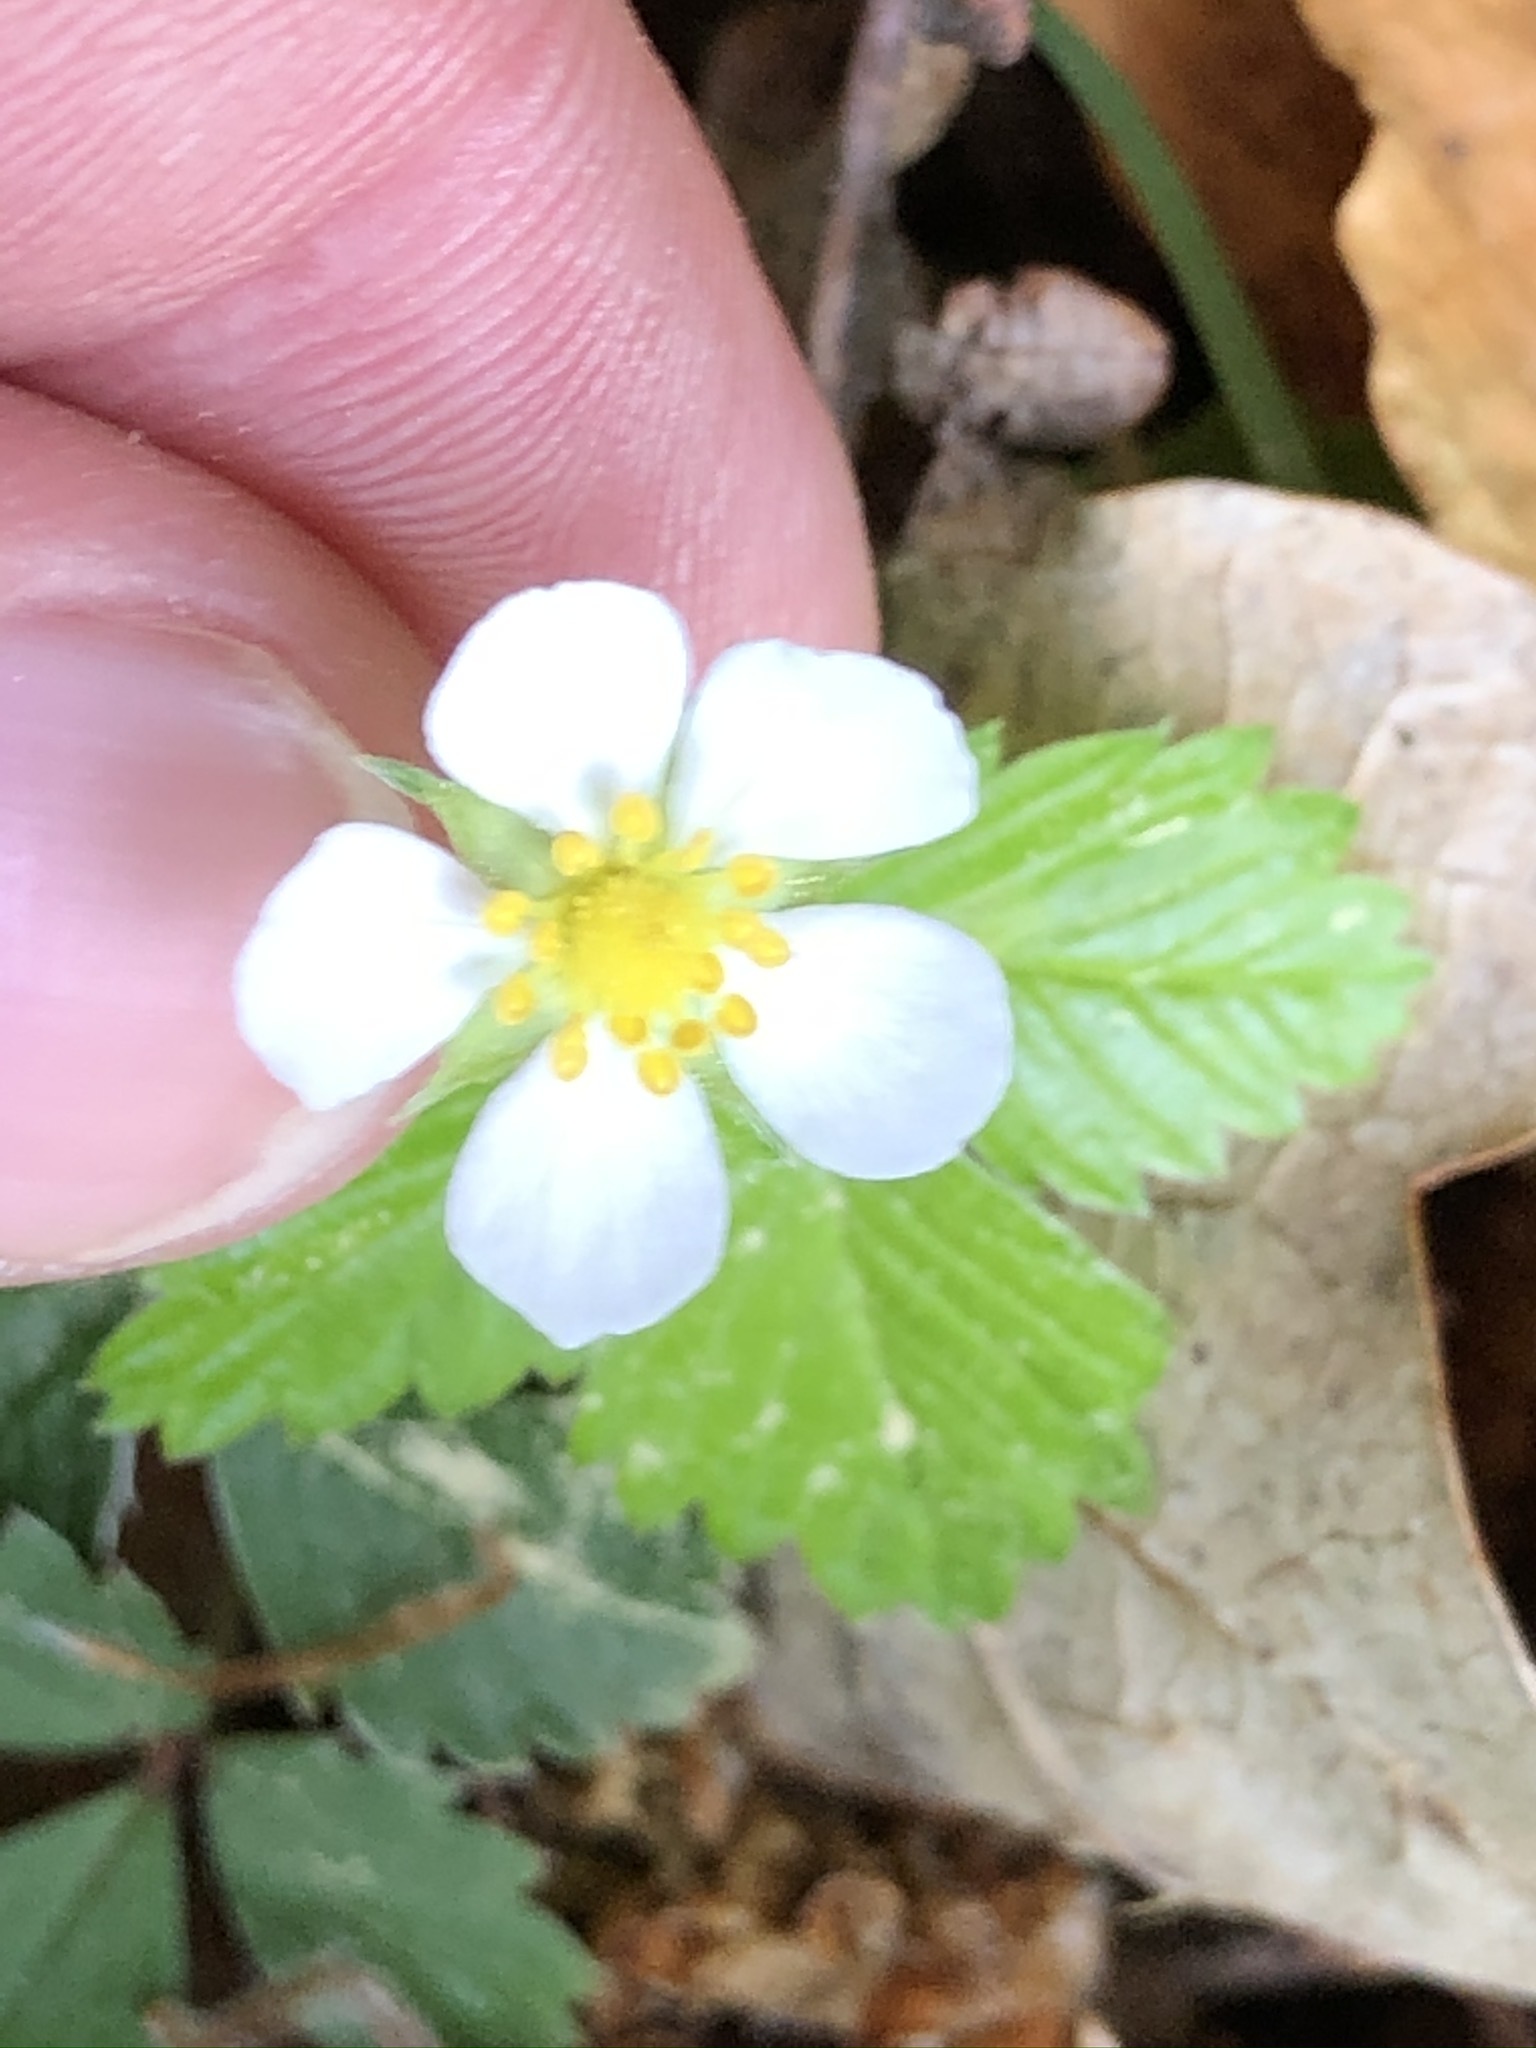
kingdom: Plantae
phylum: Tracheophyta
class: Magnoliopsida
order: Rosales
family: Rosaceae
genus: Fragaria
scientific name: Fragaria vesca
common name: Wild strawberry
